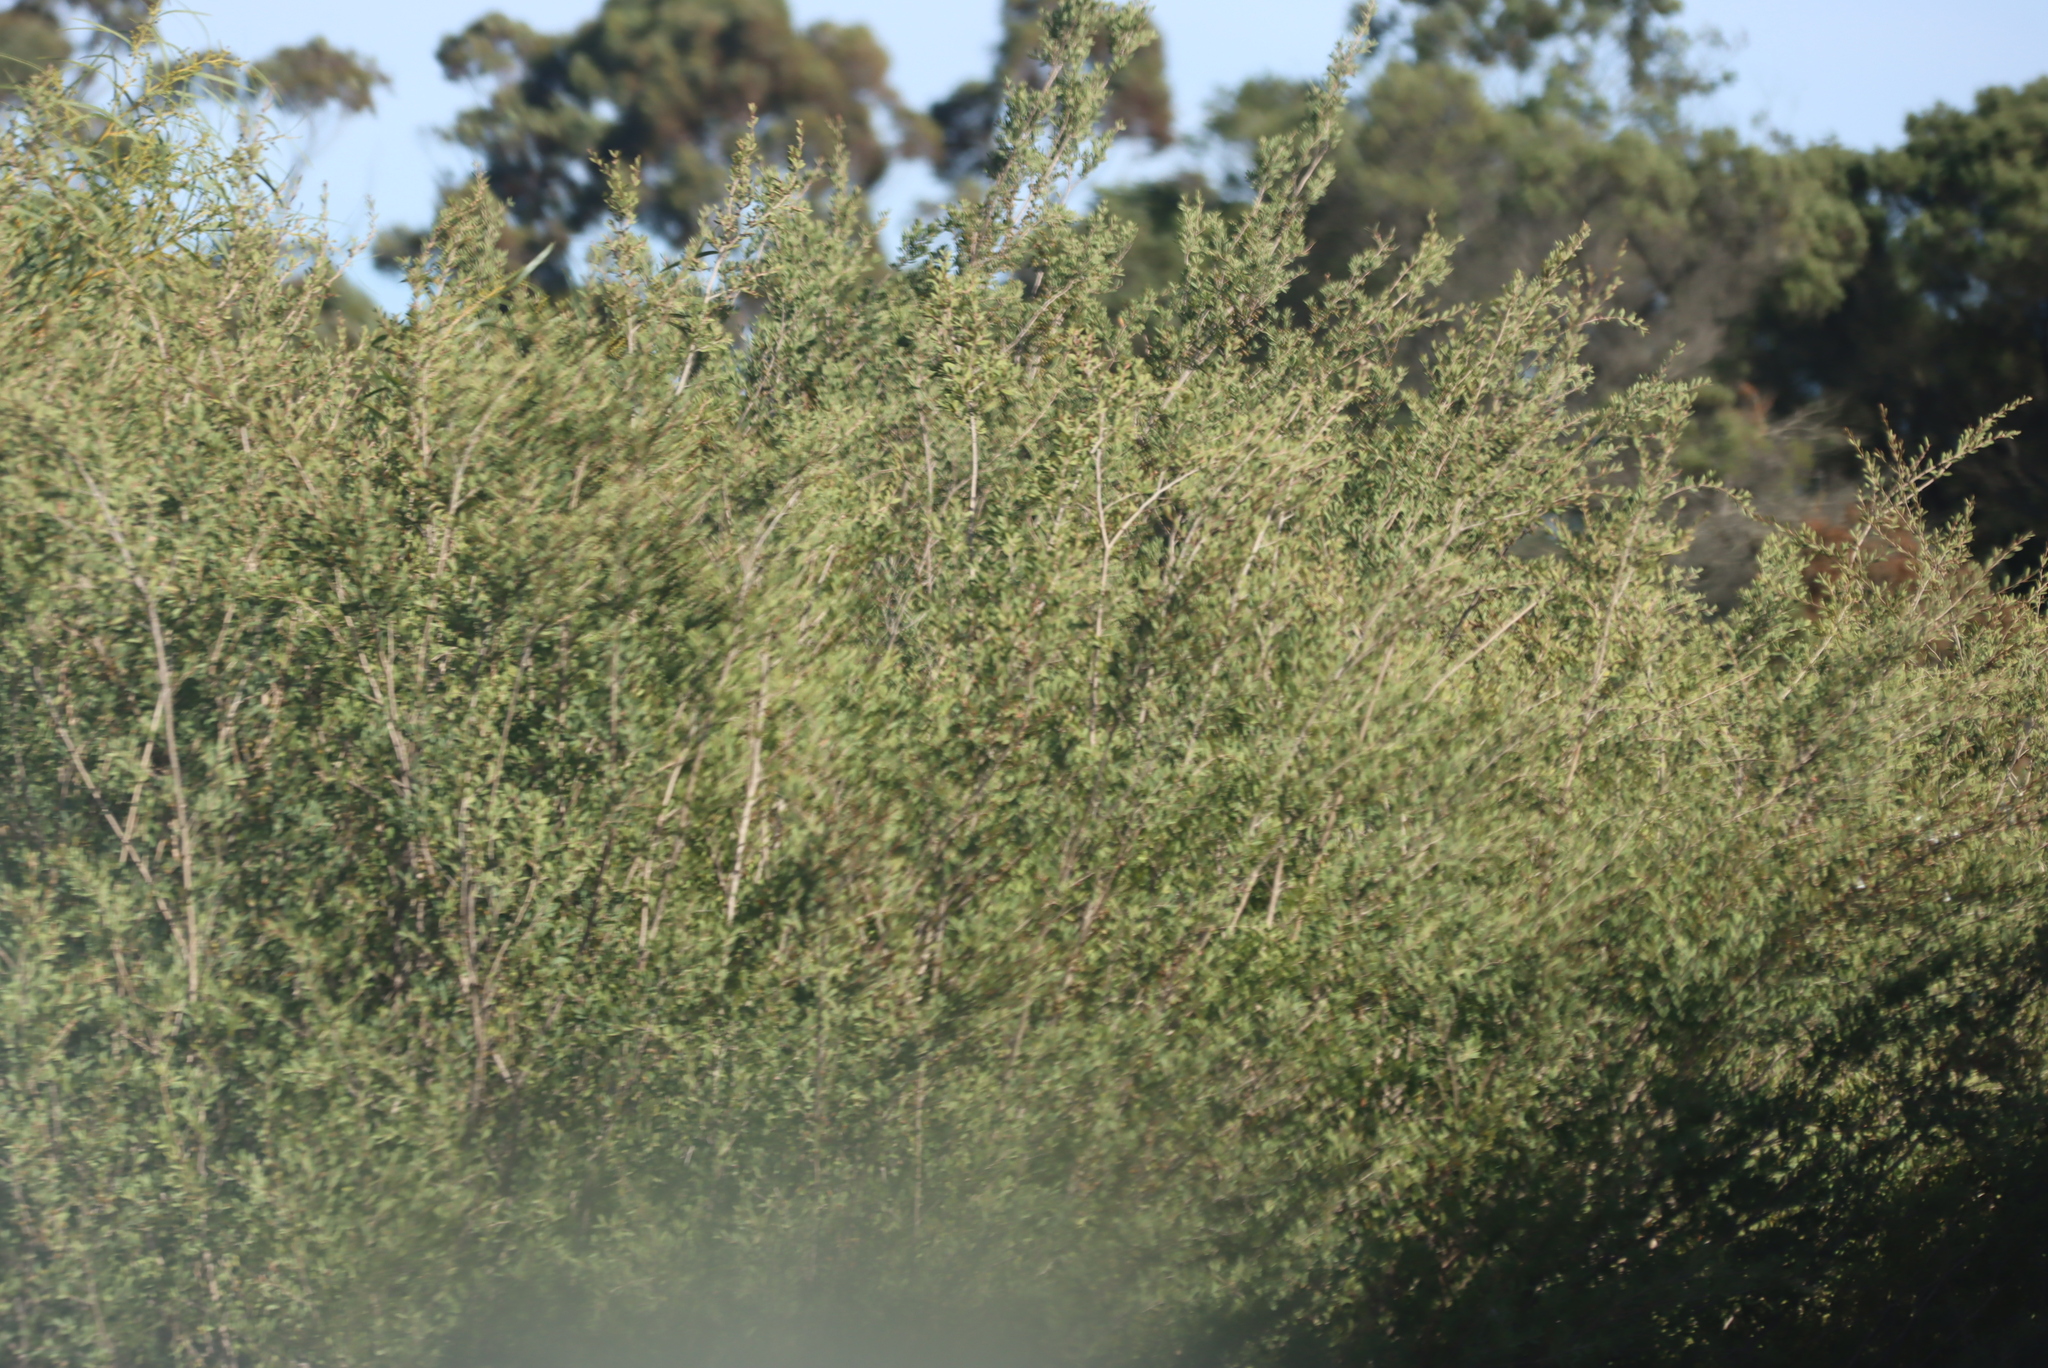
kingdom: Plantae
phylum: Tracheophyta
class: Magnoliopsida
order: Myrtales
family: Myrtaceae
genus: Leptospermum
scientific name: Leptospermum laevigatum
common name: Australian teatree
